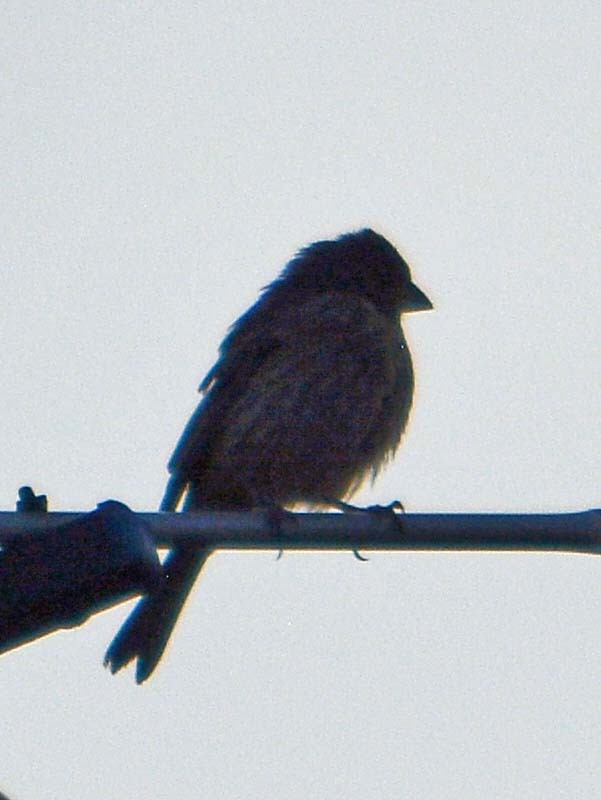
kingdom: Animalia
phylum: Chordata
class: Aves
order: Passeriformes
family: Fringillidae
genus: Haemorhous
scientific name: Haemorhous mexicanus
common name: House finch
